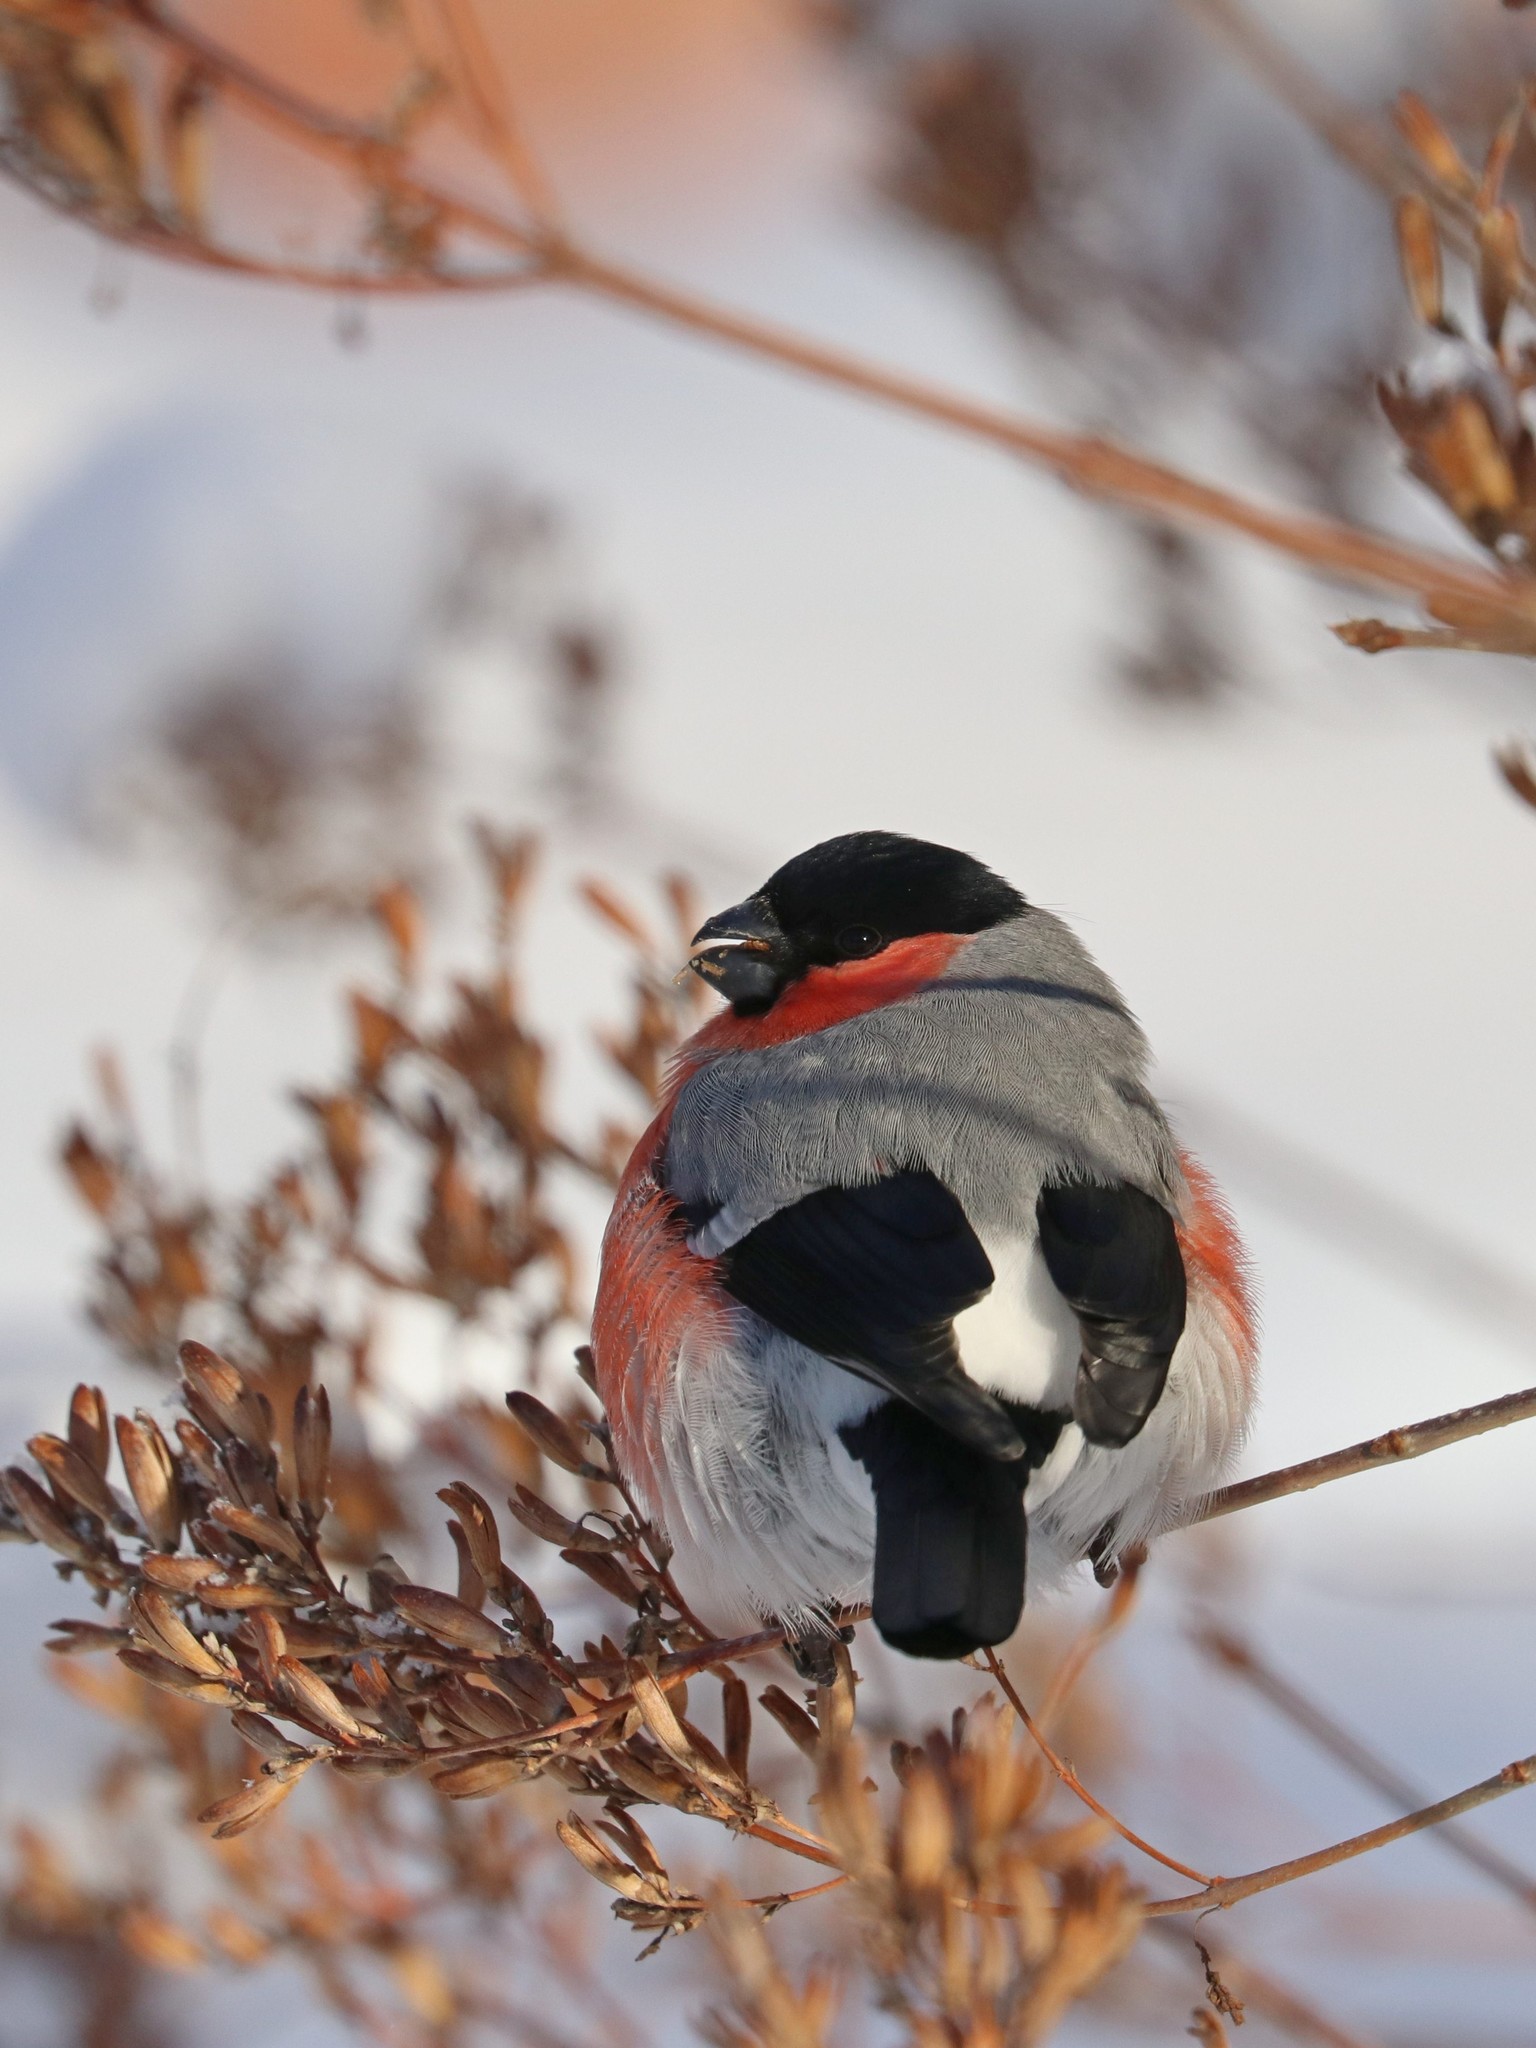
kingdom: Animalia
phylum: Chordata
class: Aves
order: Passeriformes
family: Fringillidae
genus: Pyrrhula
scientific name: Pyrrhula pyrrhula
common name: Eurasian bullfinch
